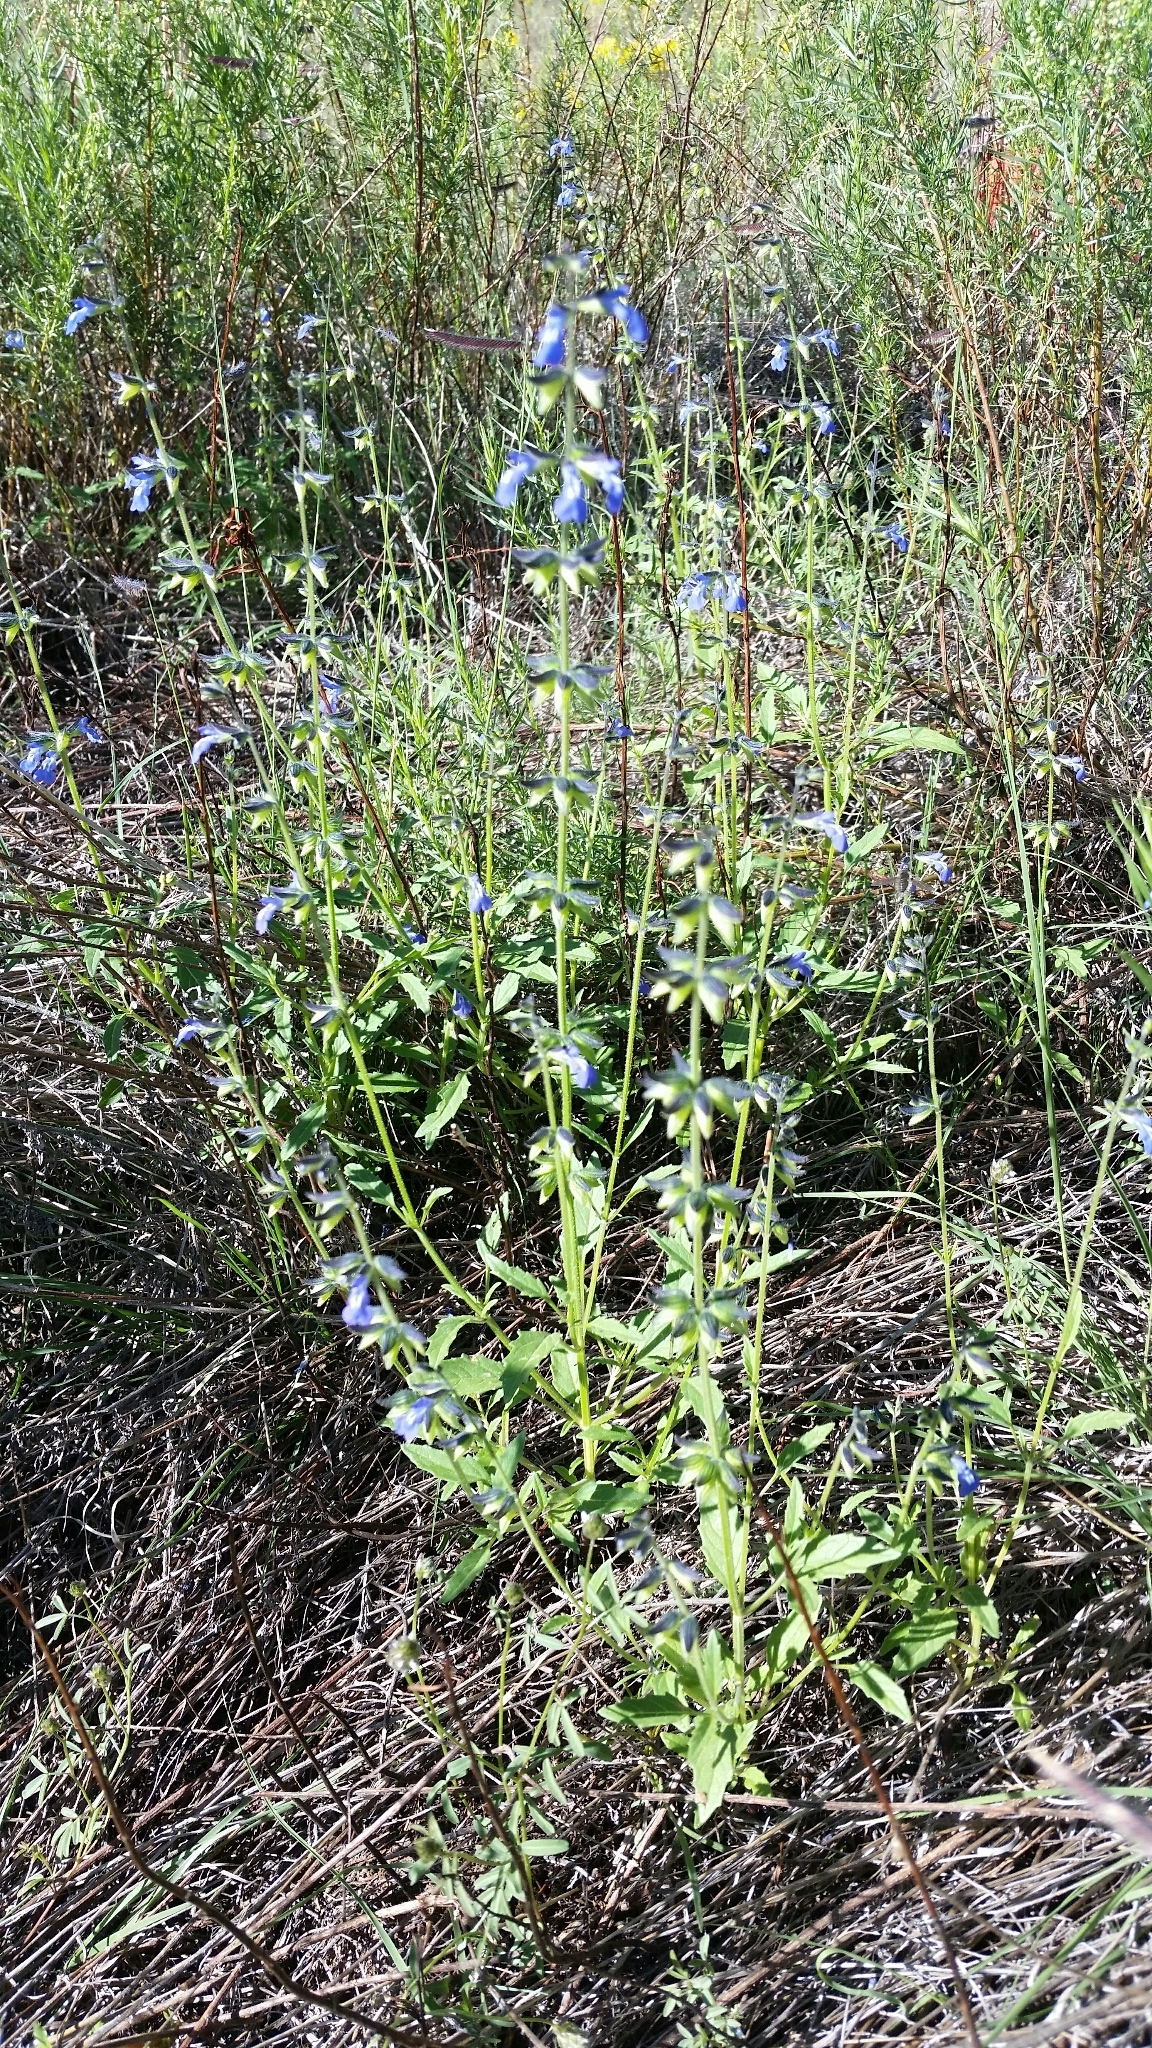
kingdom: Plantae
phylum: Tracheophyta
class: Magnoliopsida
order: Lamiales
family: Lamiaceae
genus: Salvia
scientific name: Salvia subincisa
